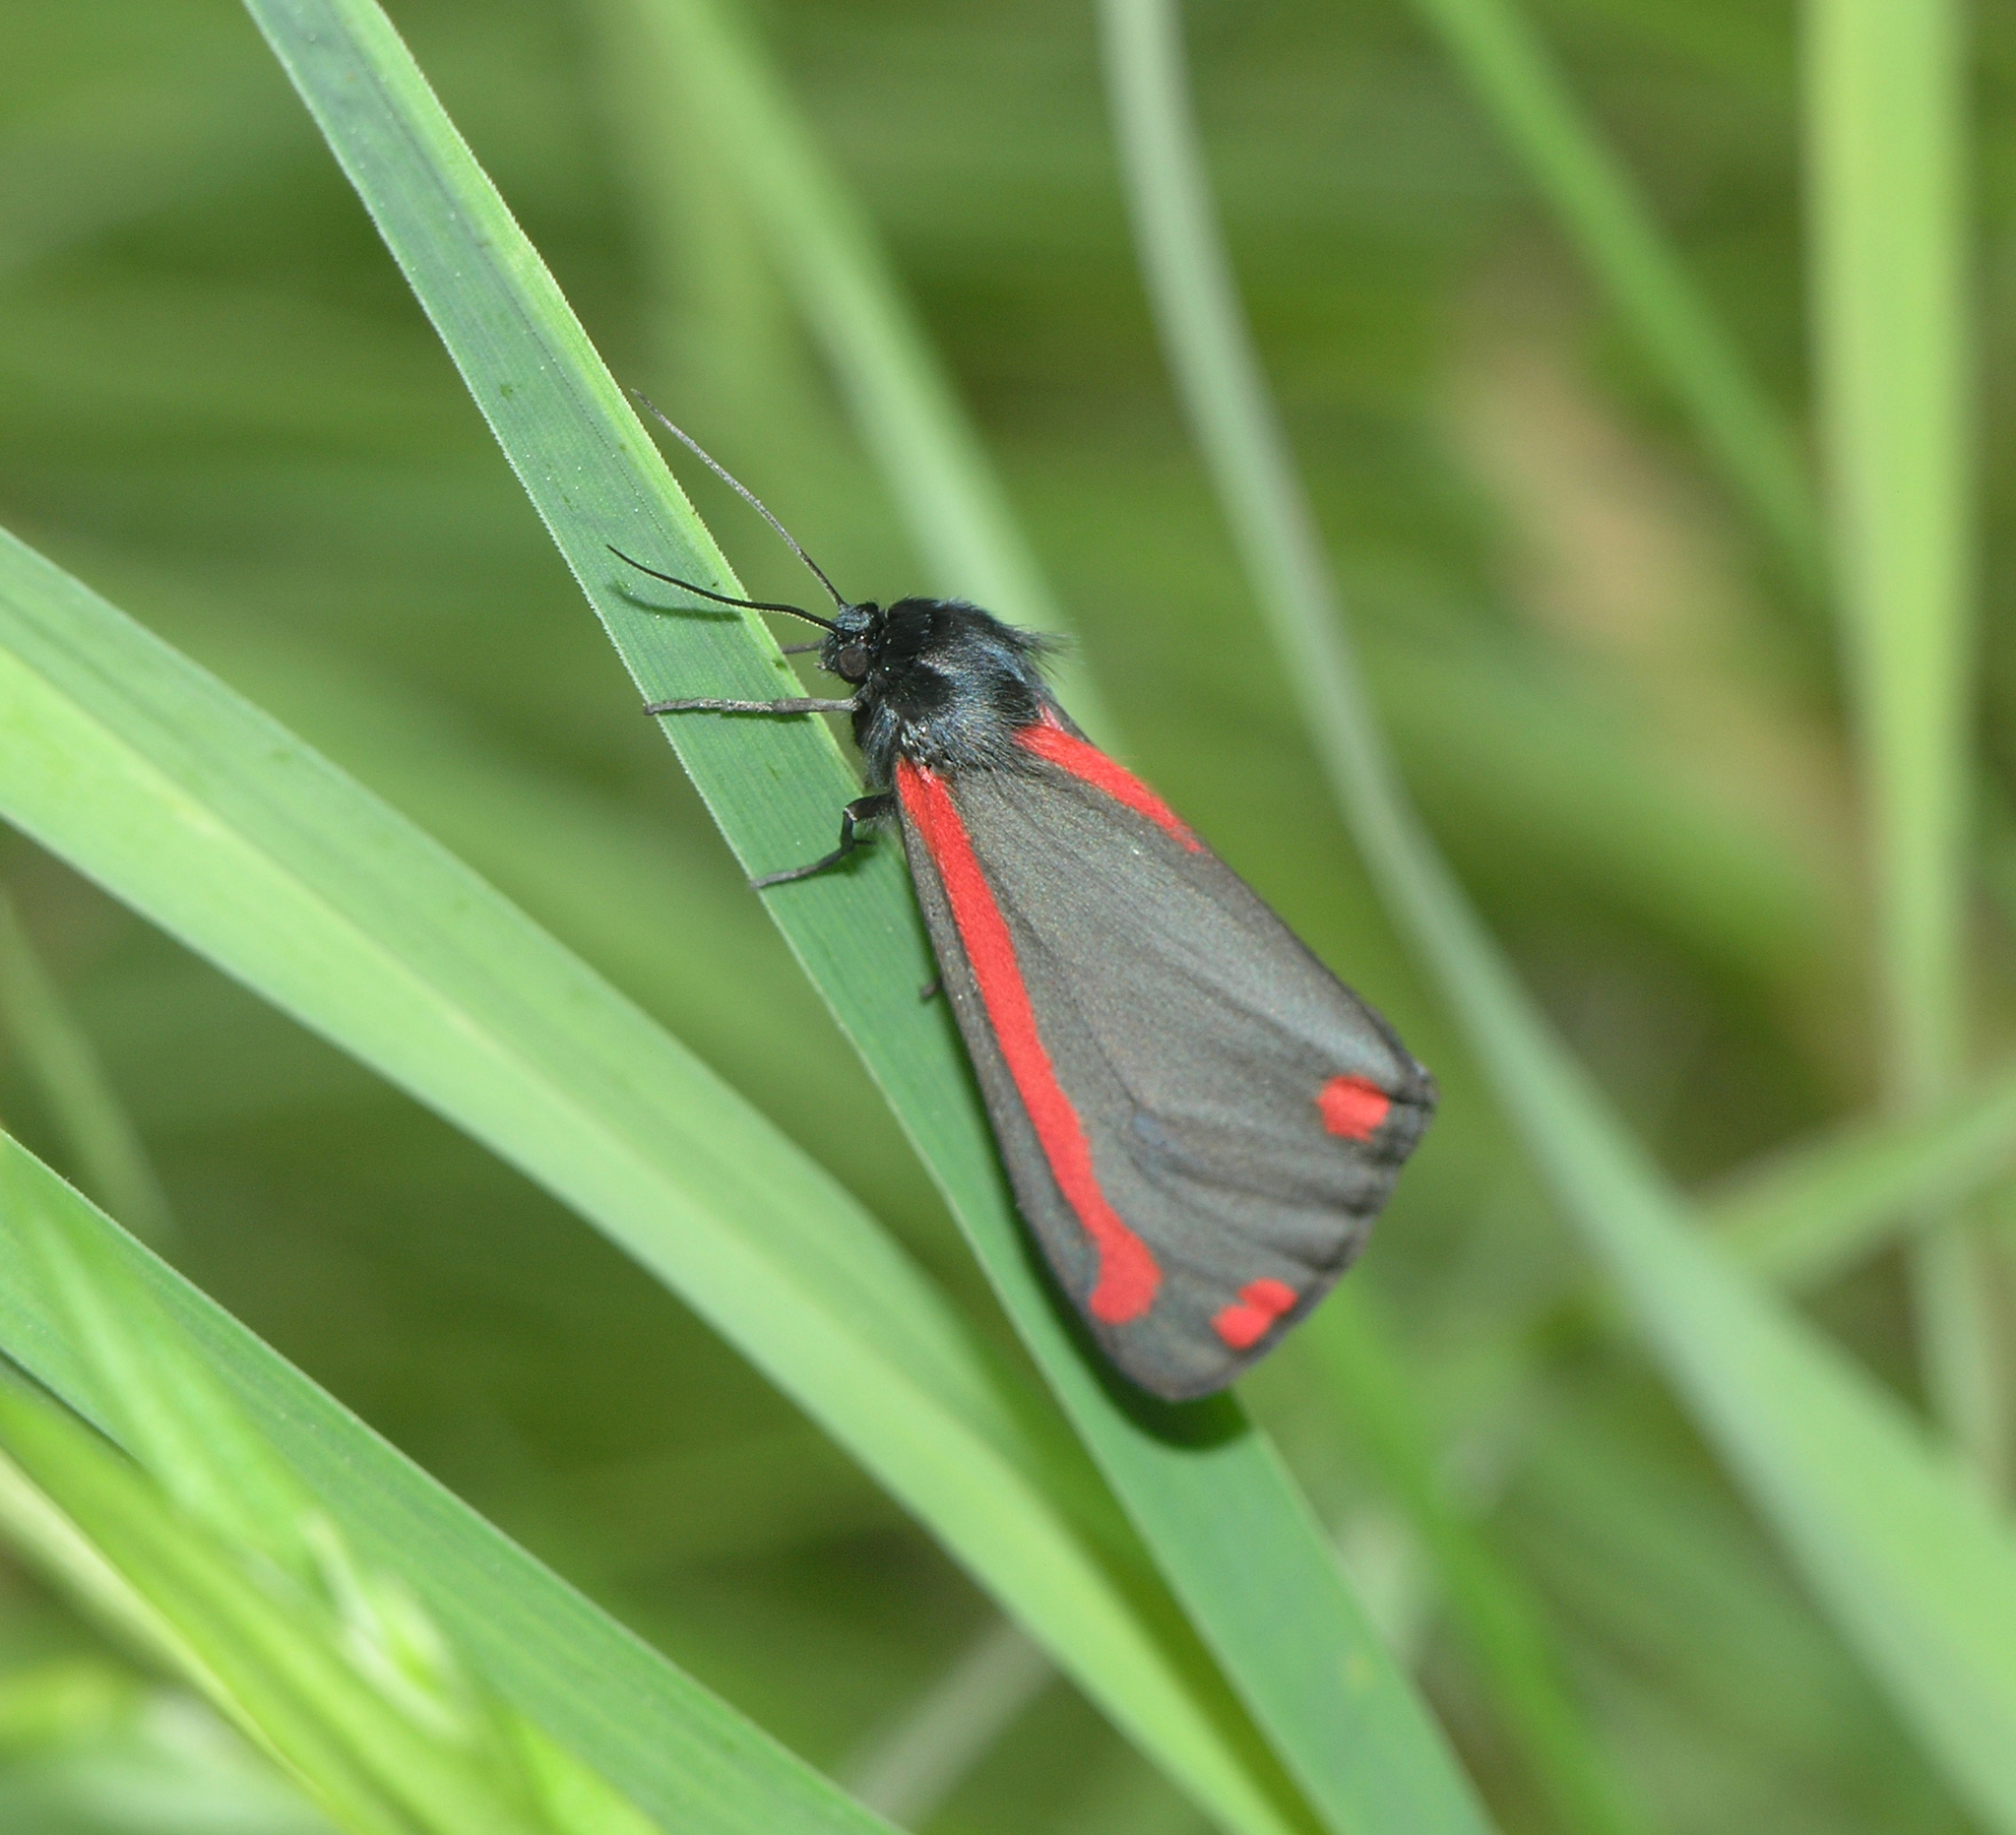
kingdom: Animalia
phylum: Arthropoda
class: Insecta
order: Lepidoptera
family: Erebidae
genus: Tyria
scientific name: Tyria jacobaeae
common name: Cinnabar
